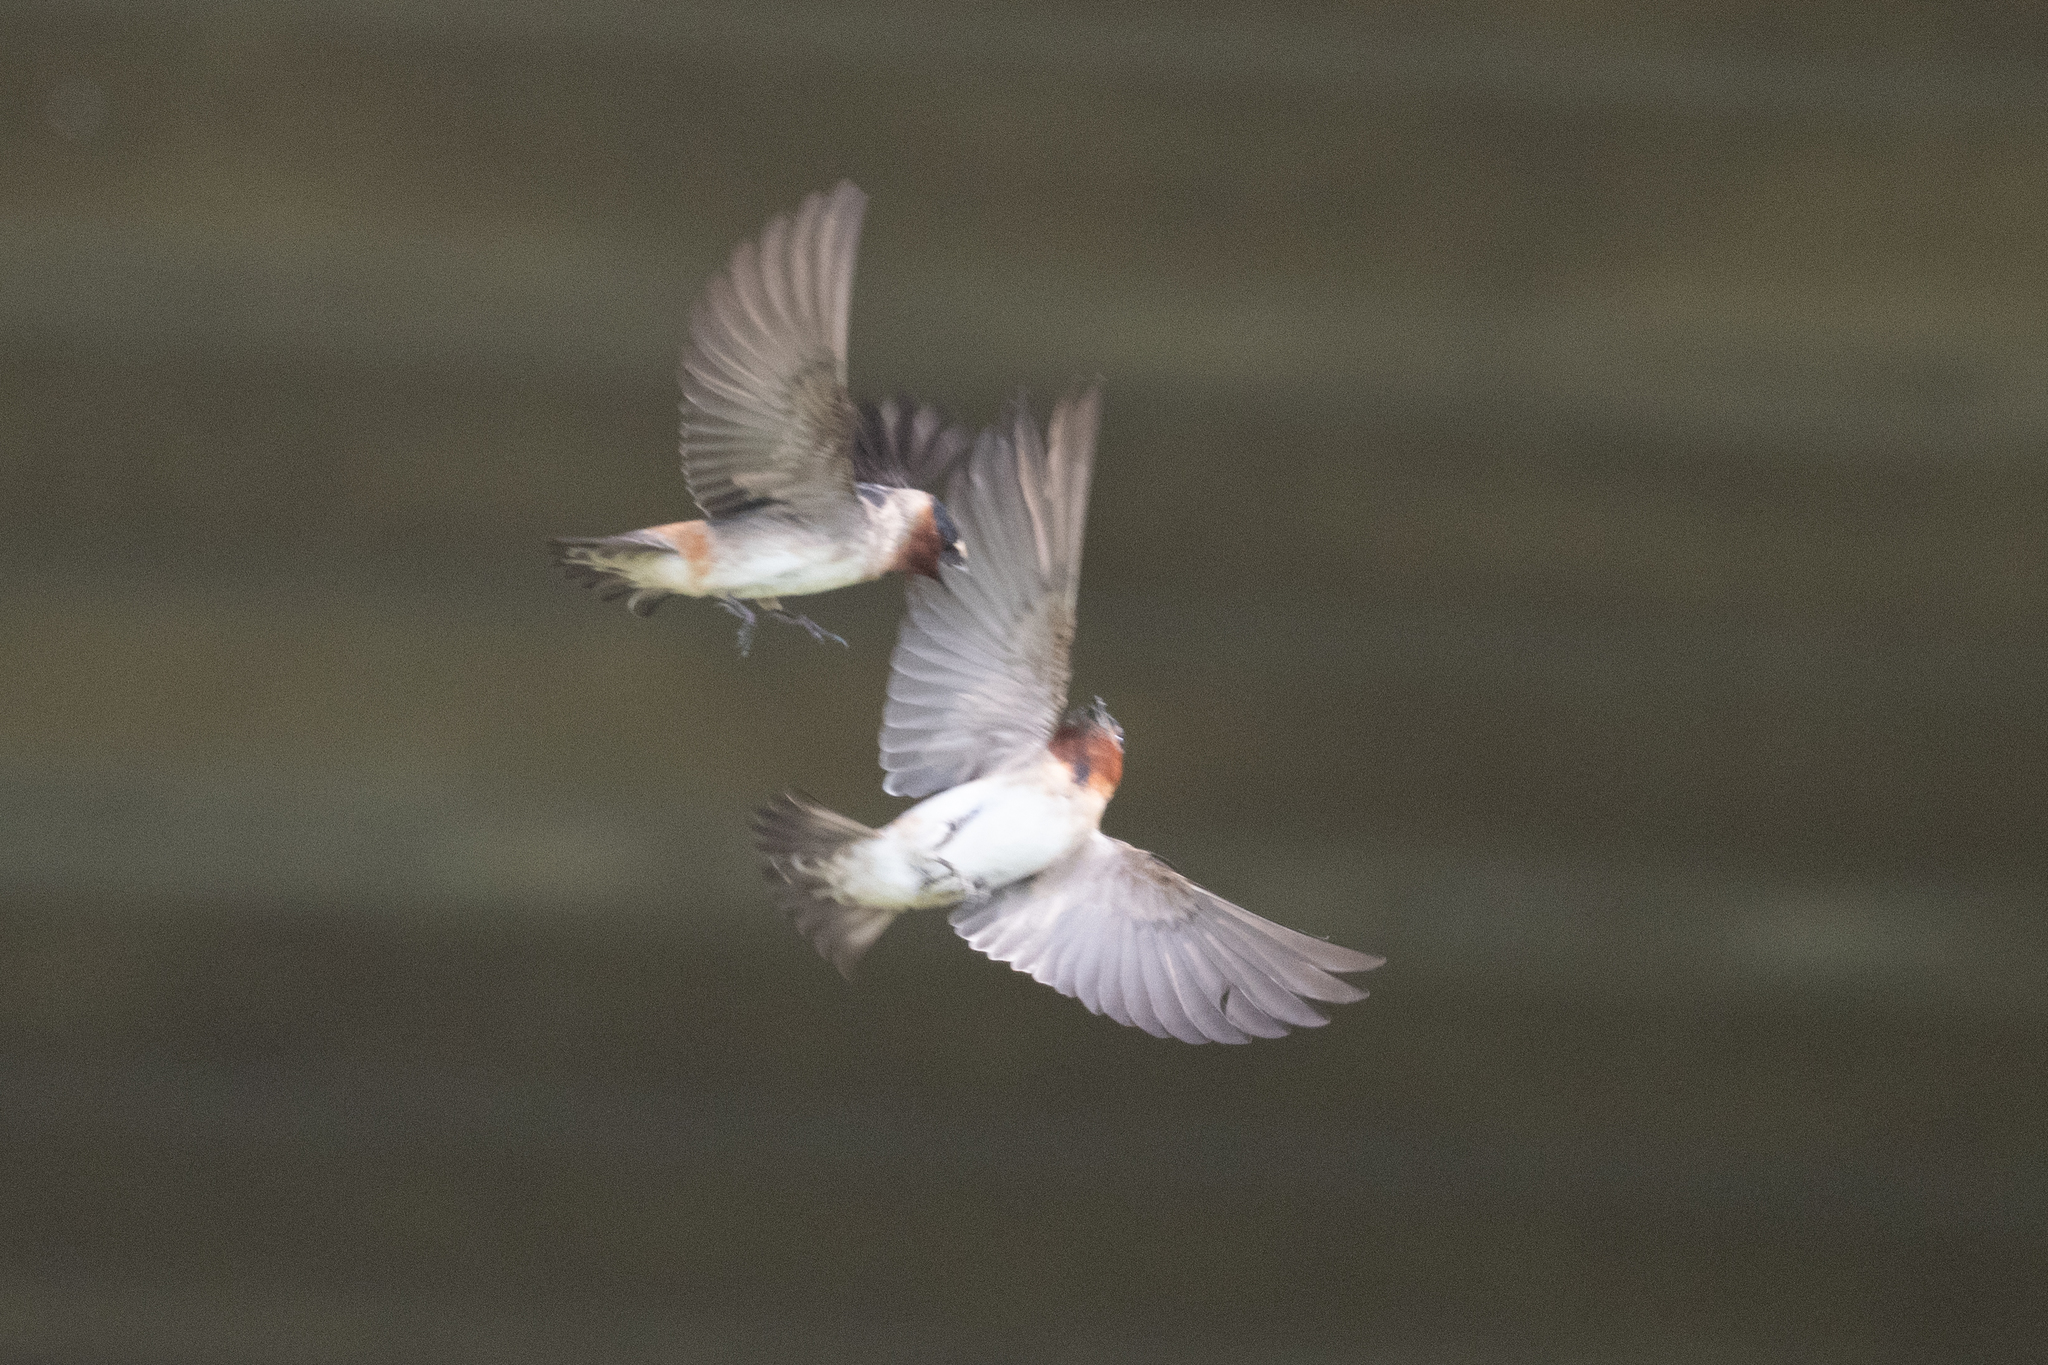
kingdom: Animalia
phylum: Chordata
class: Aves
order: Passeriformes
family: Hirundinidae
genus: Petrochelidon
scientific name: Petrochelidon pyrrhonota
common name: American cliff swallow
